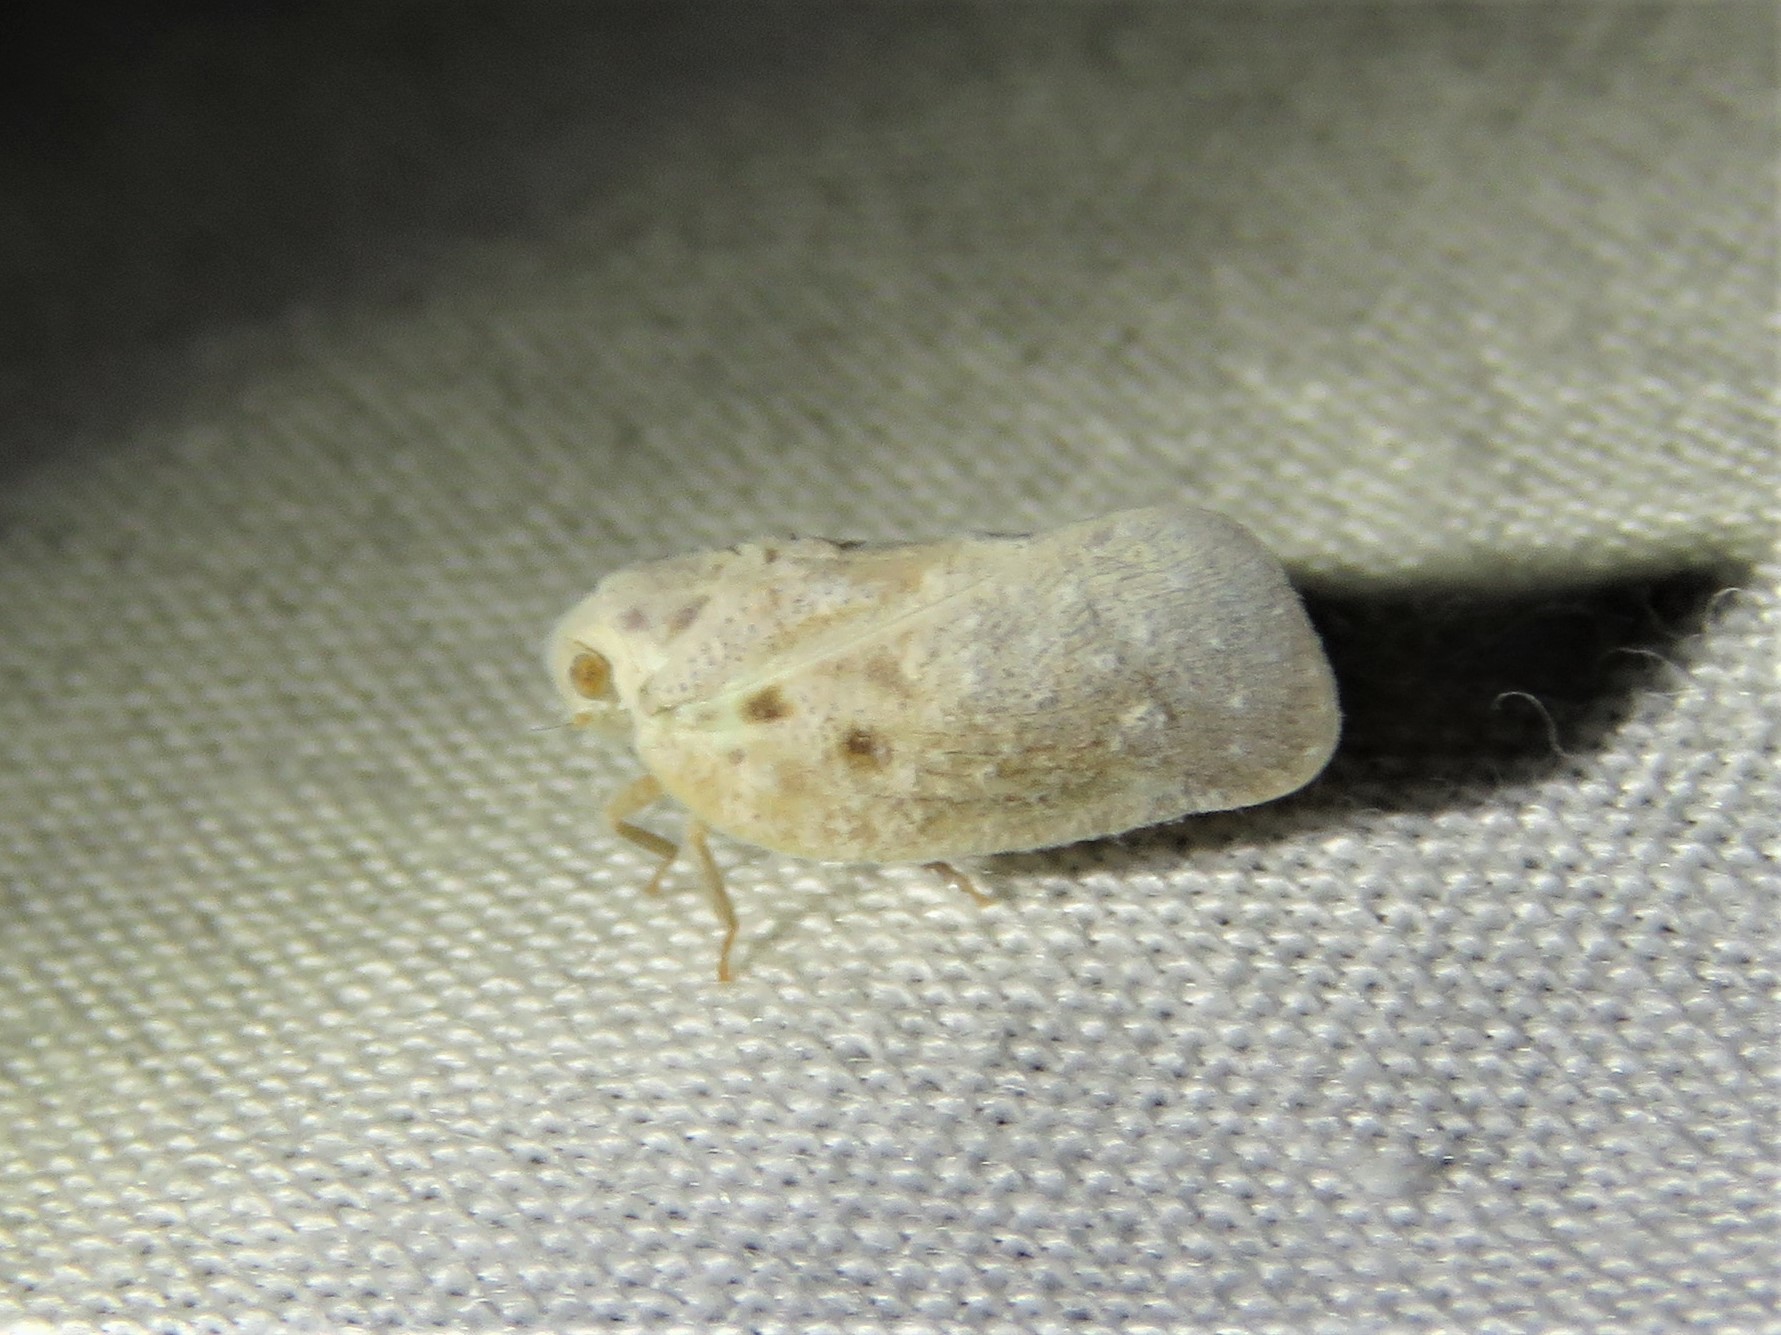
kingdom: Animalia
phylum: Arthropoda
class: Insecta
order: Hemiptera
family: Flatidae
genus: Metcalfa
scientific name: Metcalfa pruinosa
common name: Citrus flatid planthopper
